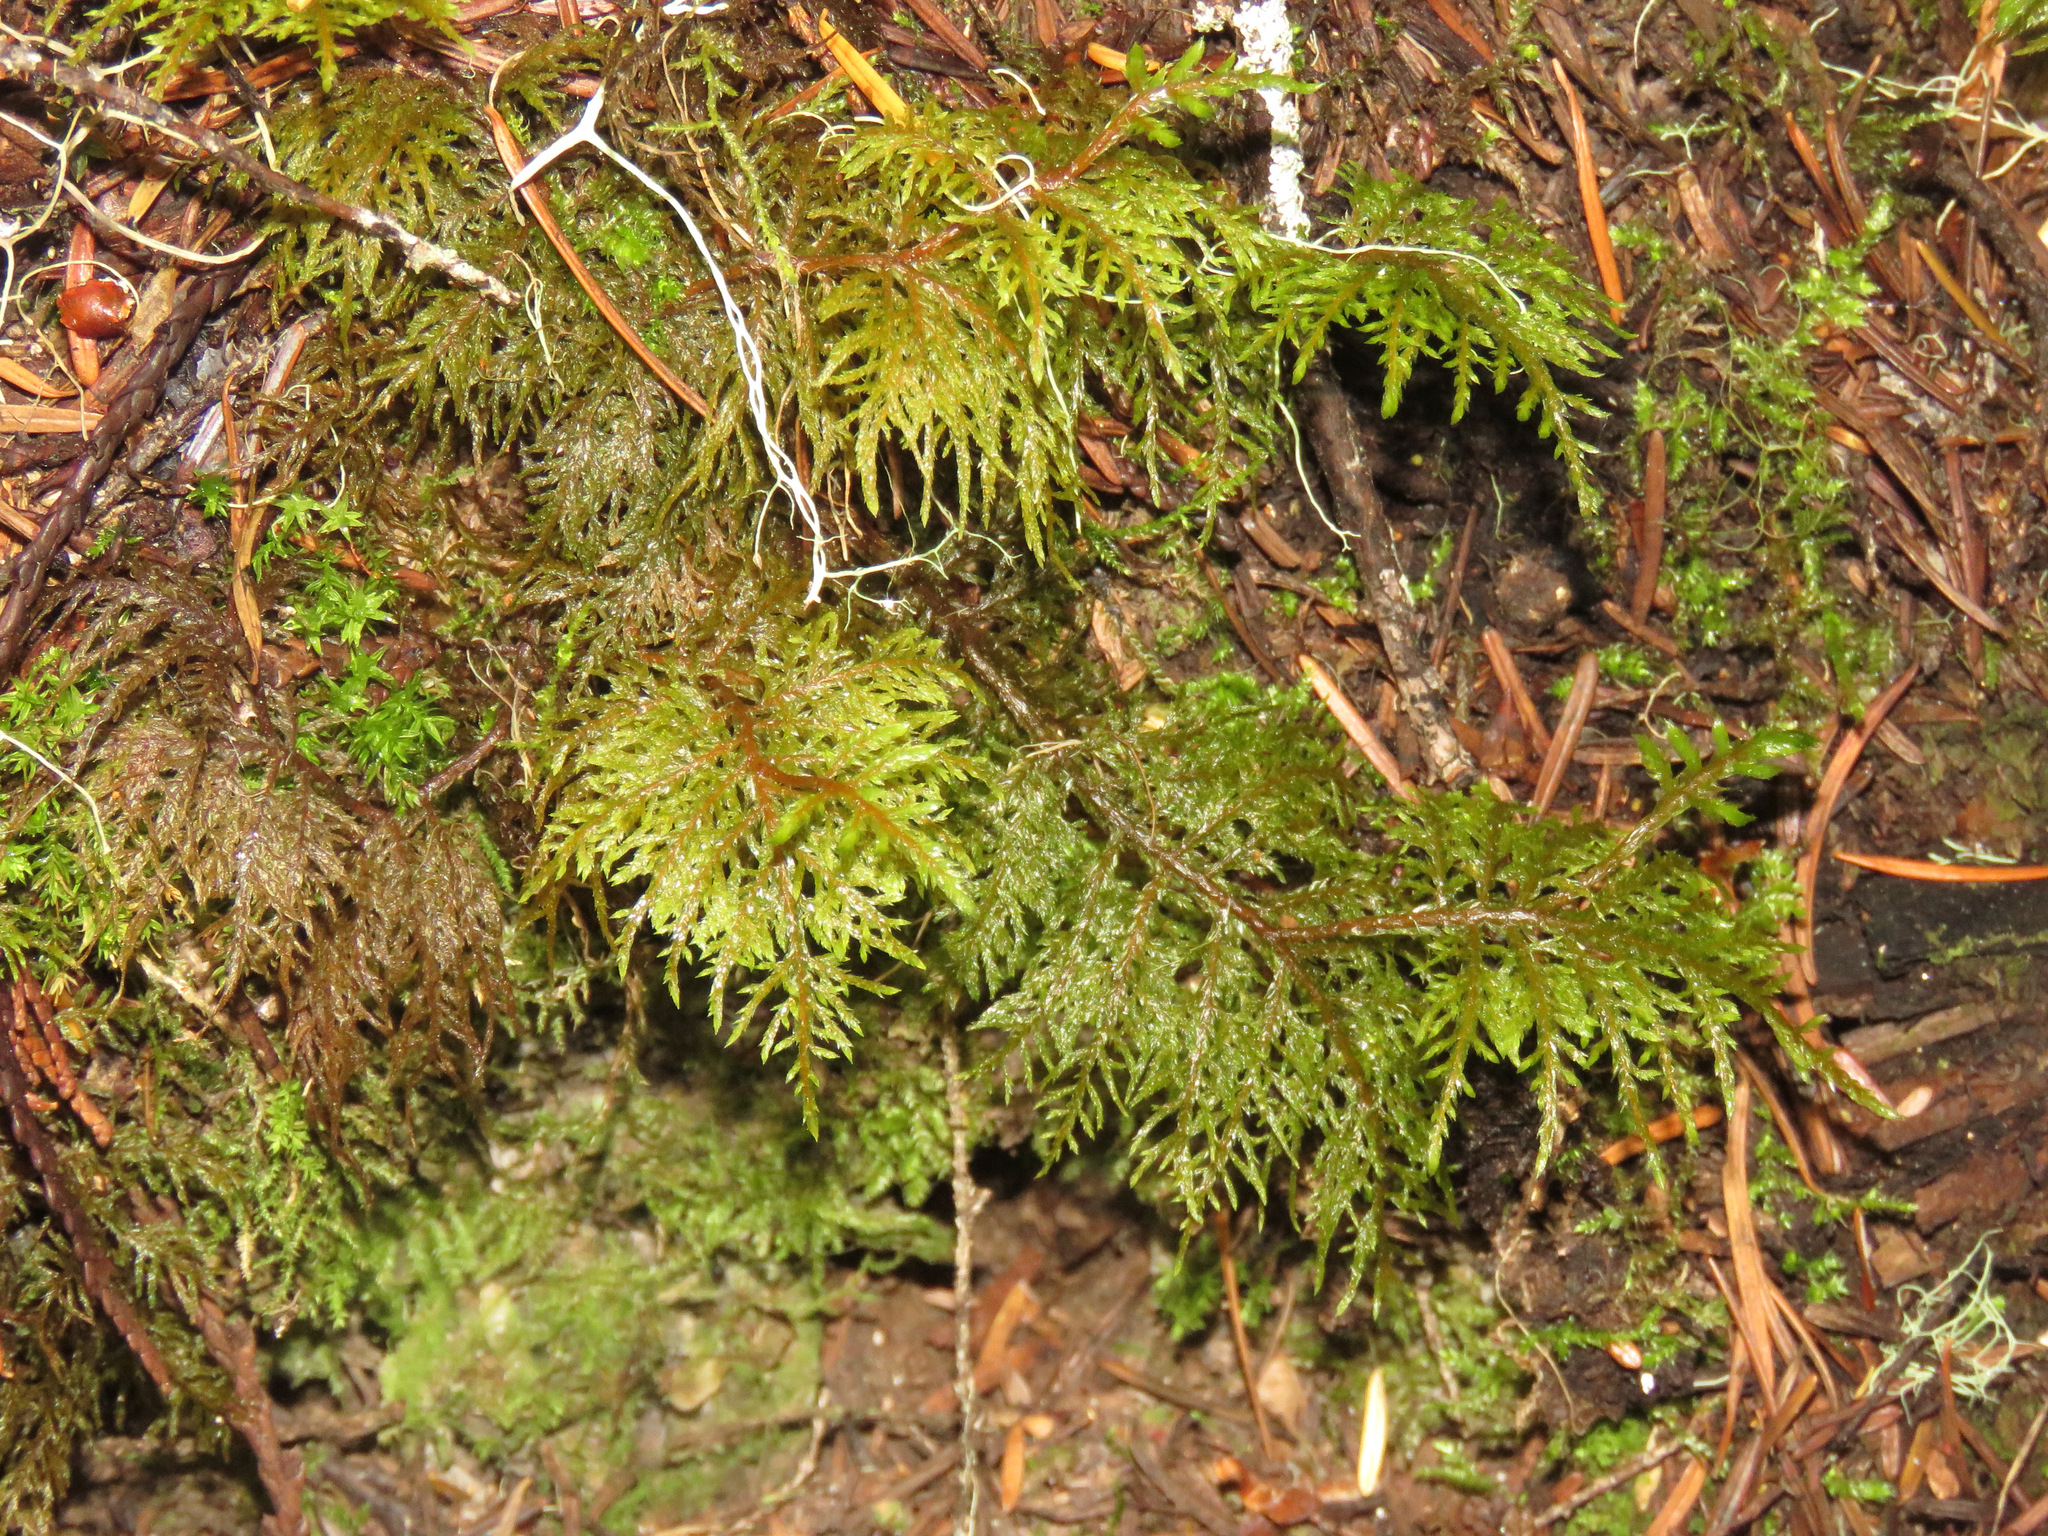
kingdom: Plantae
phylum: Bryophyta
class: Bryopsida
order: Hypnales
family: Hylocomiaceae
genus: Hylocomium
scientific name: Hylocomium splendens
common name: Stairstep moss
